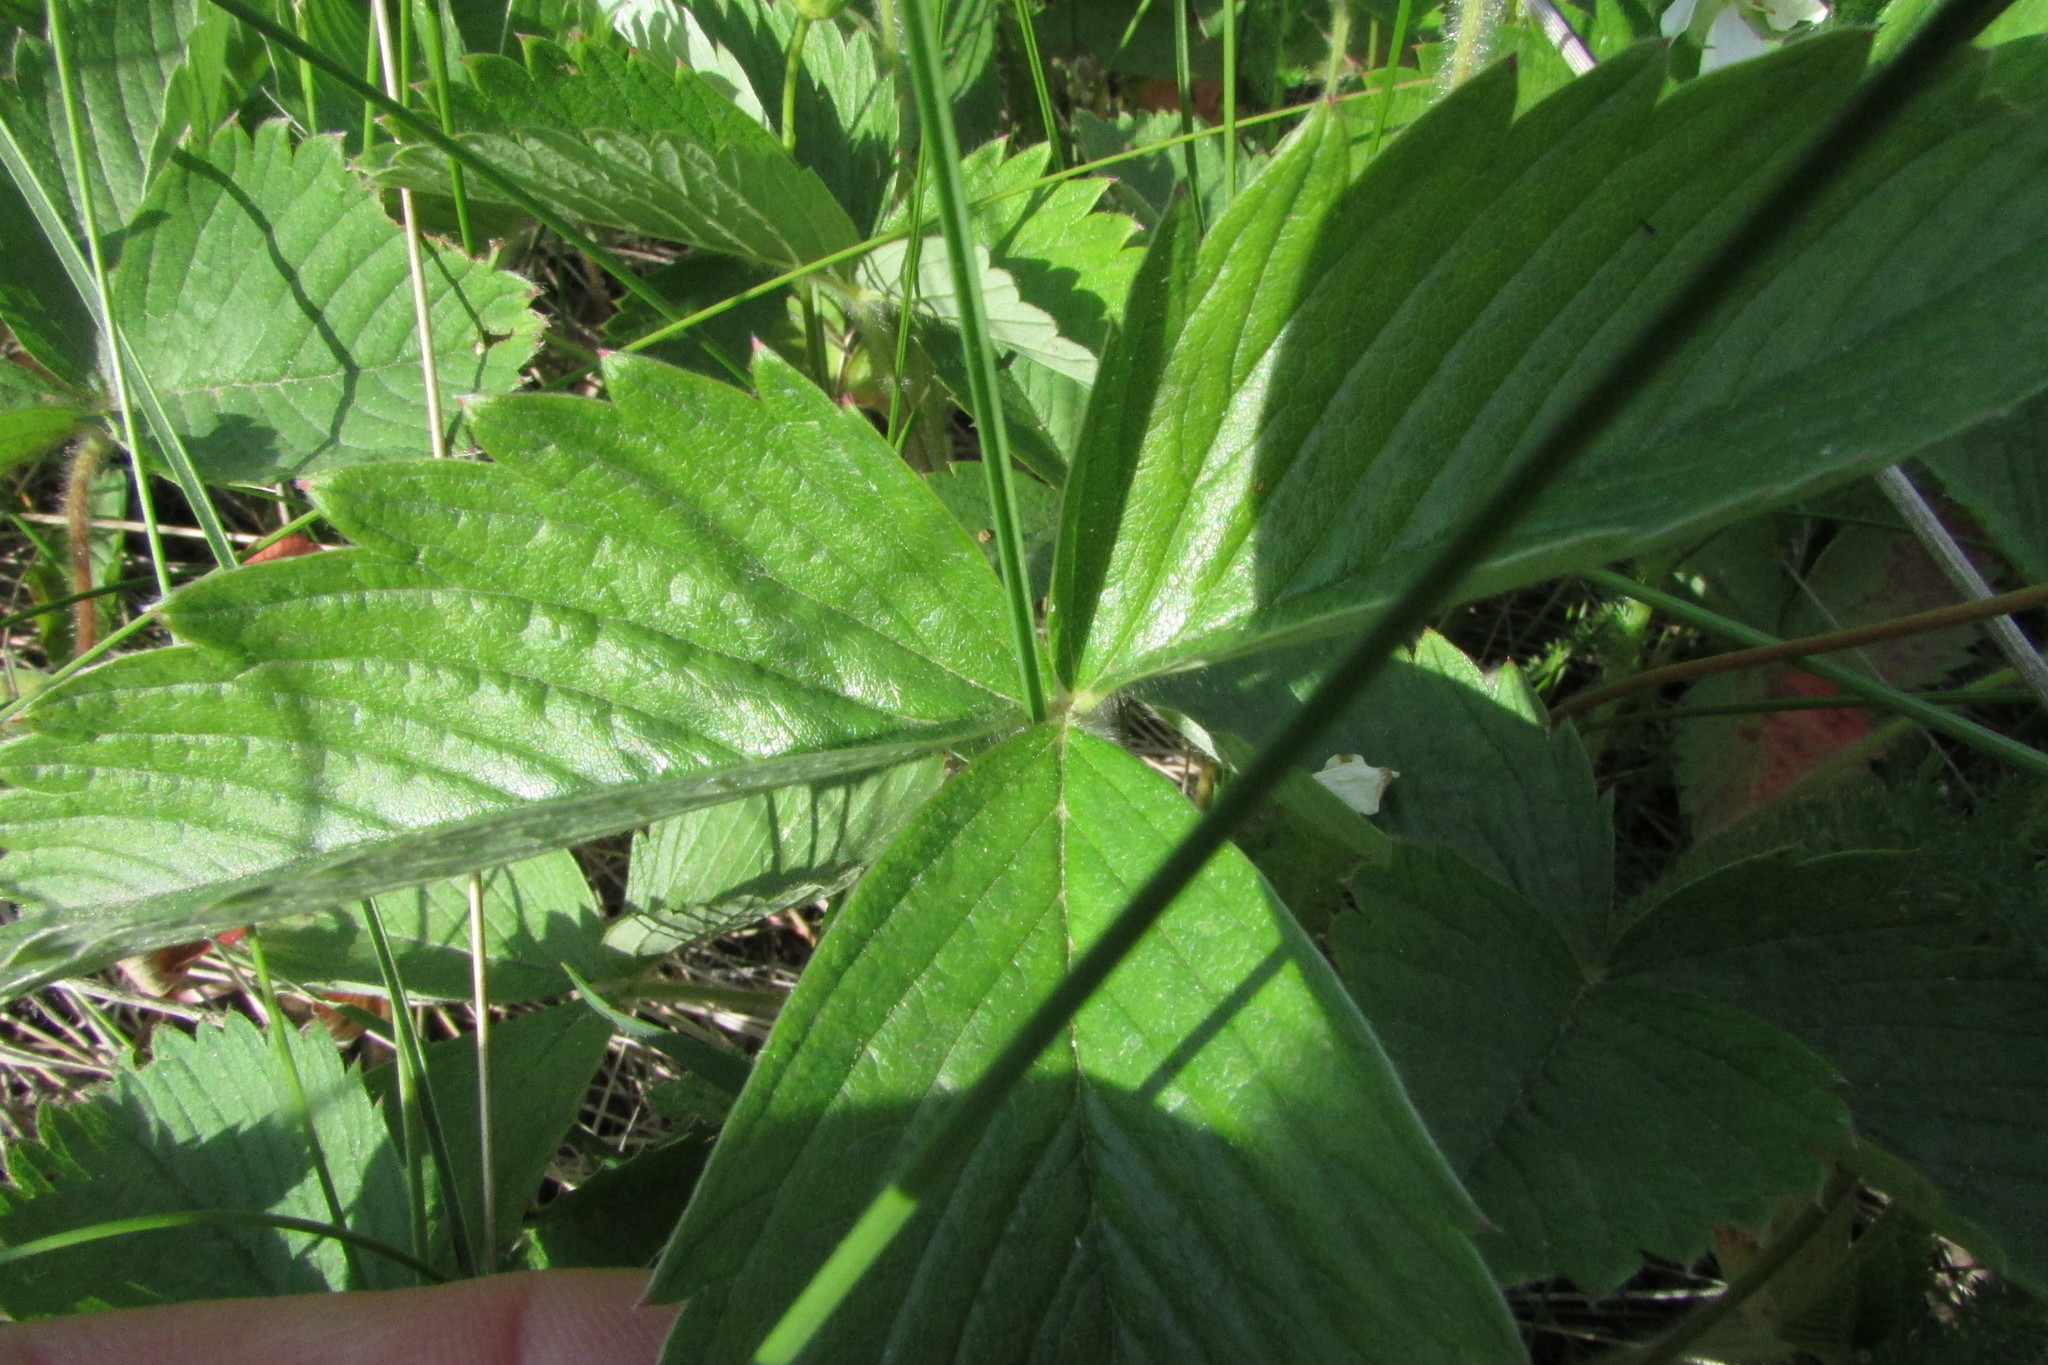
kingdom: Plantae
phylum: Tracheophyta
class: Magnoliopsida
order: Rosales
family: Rosaceae
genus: Fragaria
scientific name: Fragaria viridis
